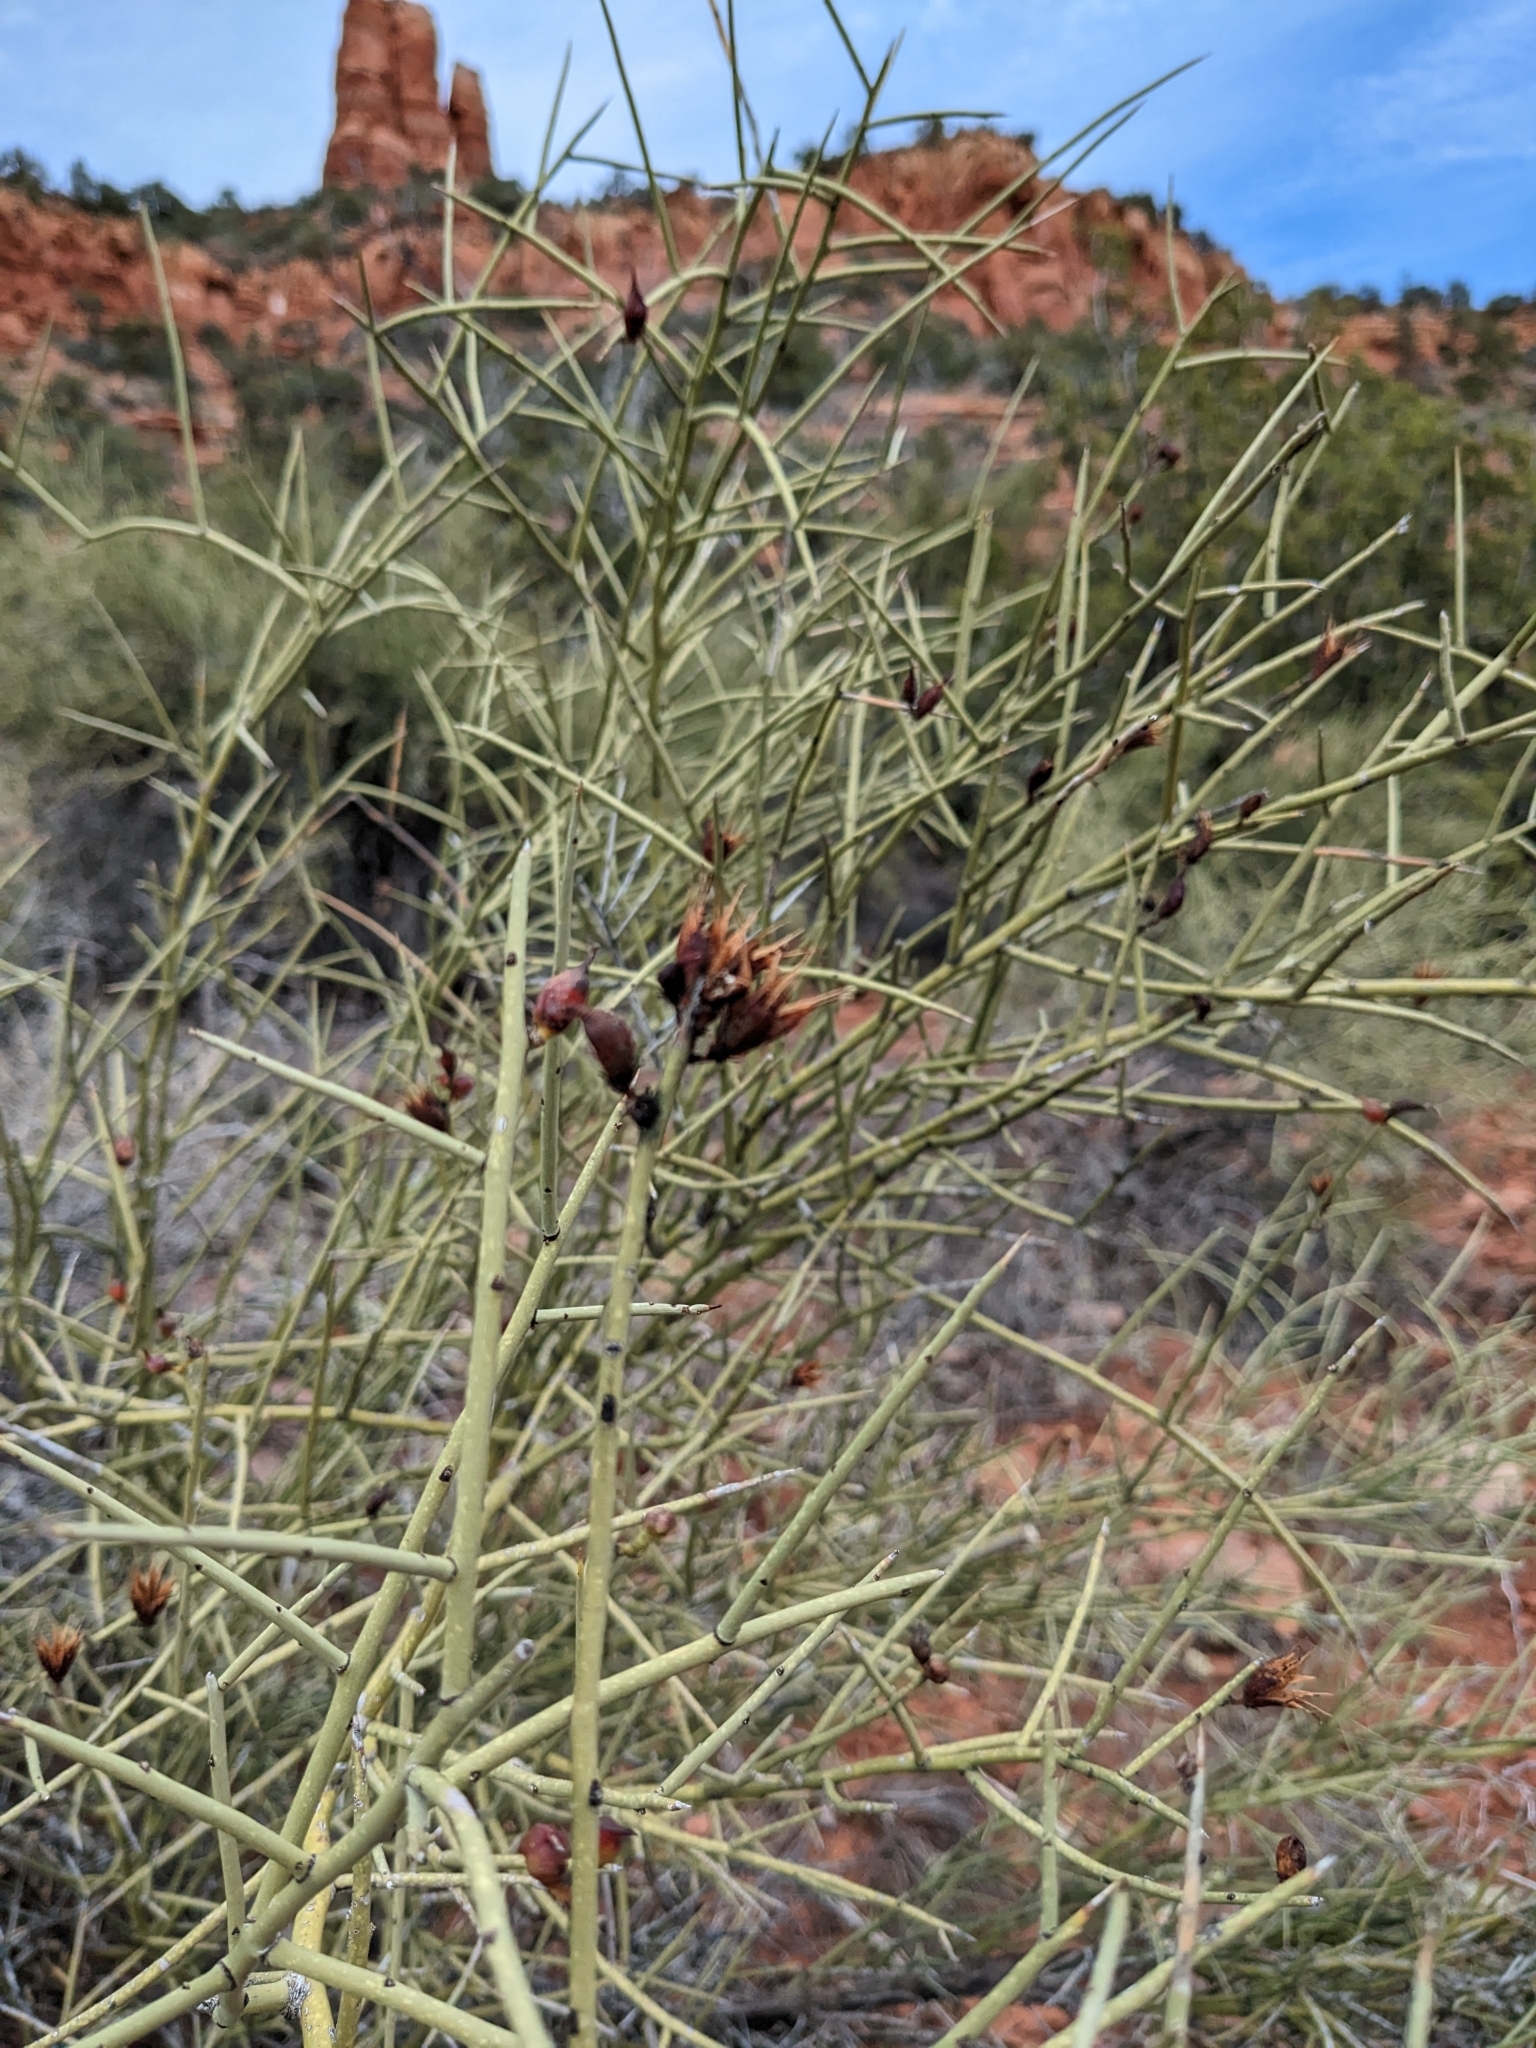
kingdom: Plantae
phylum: Tracheophyta
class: Magnoliopsida
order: Celastrales
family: Celastraceae
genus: Canotia
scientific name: Canotia holacantha
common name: Crucifixion thorns
